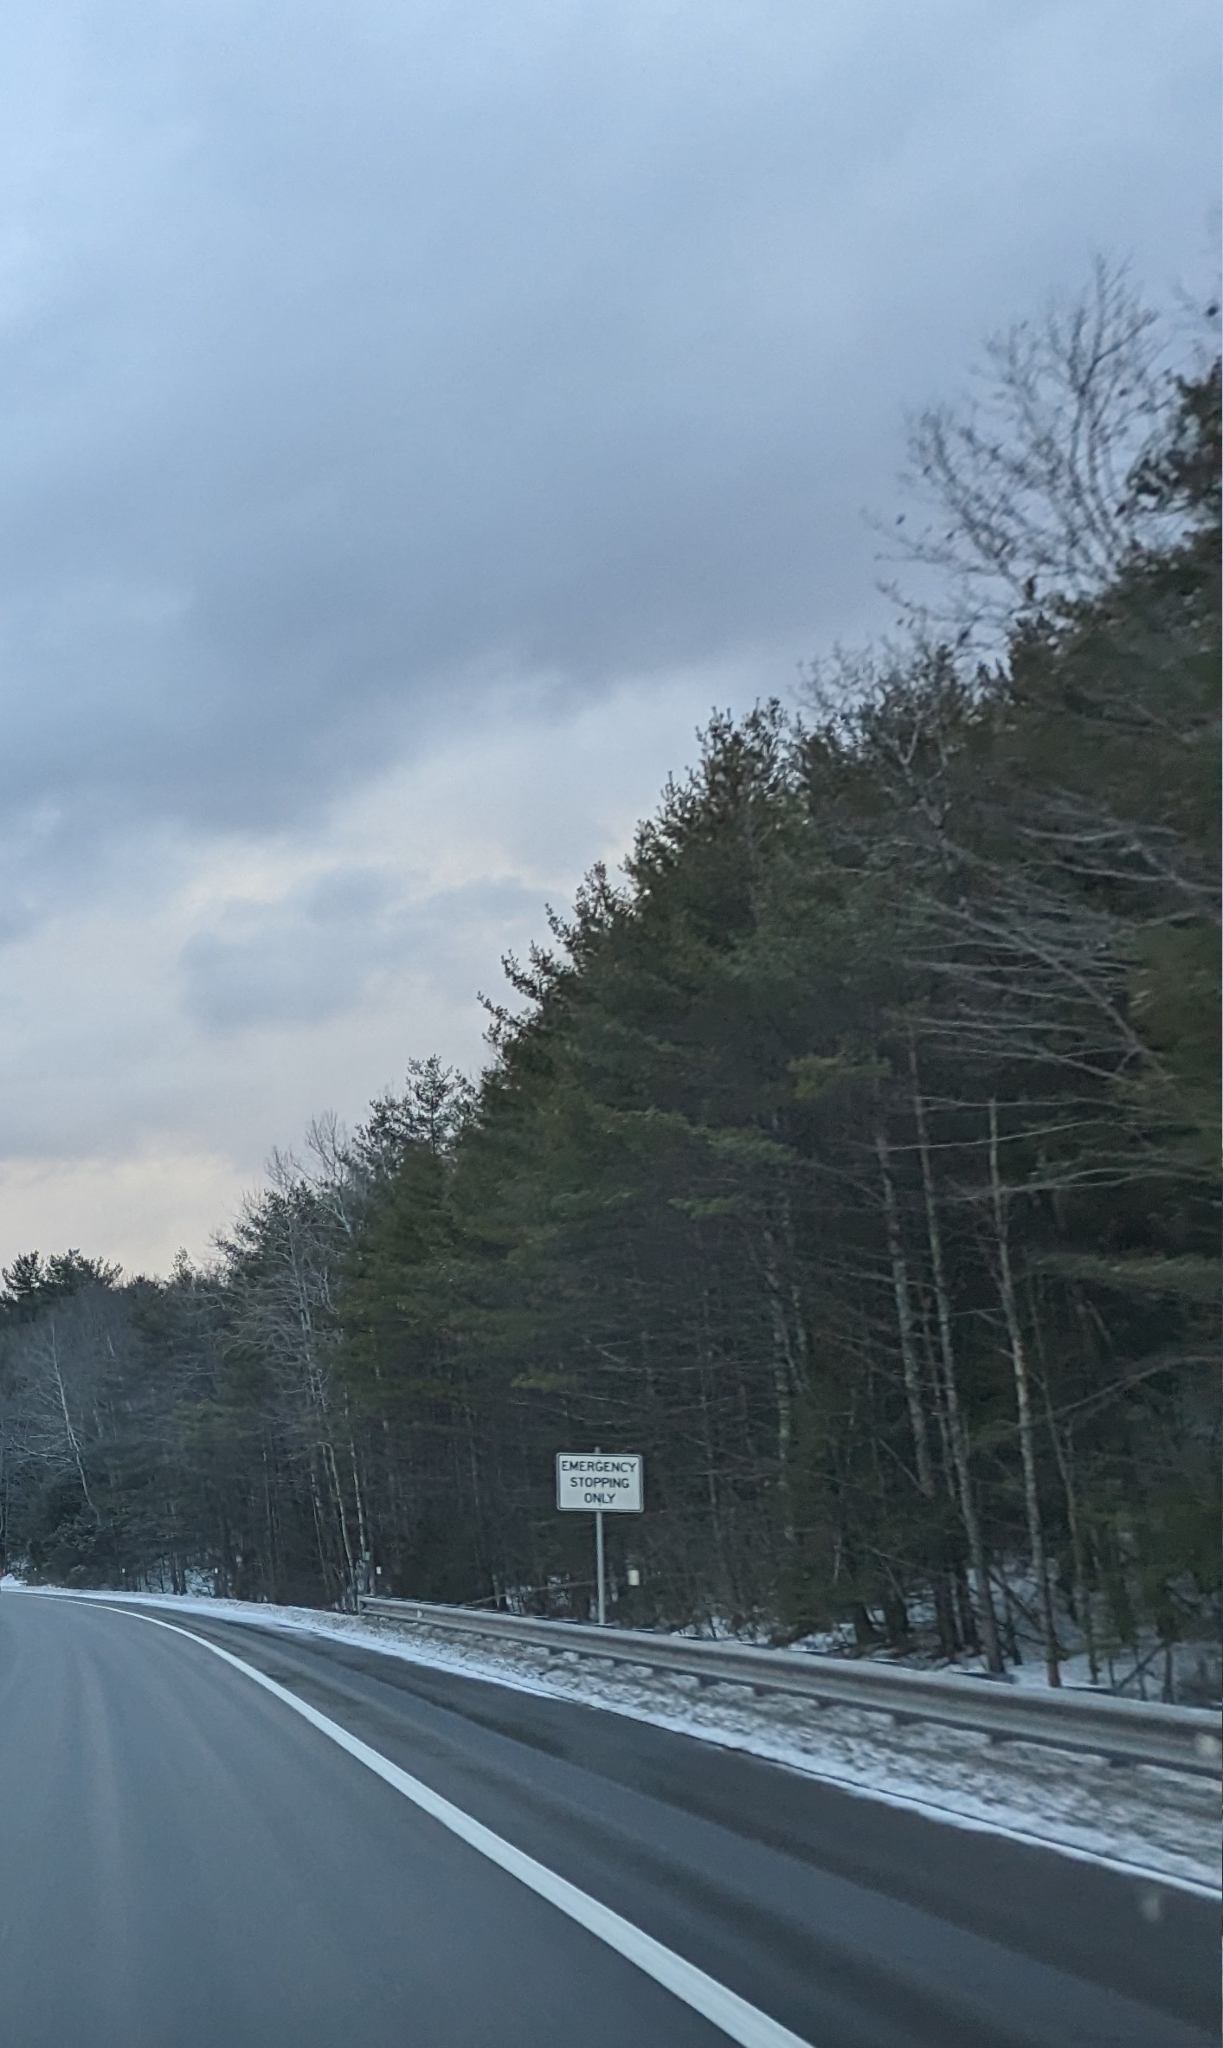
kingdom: Plantae
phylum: Tracheophyta
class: Pinopsida
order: Pinales
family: Pinaceae
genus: Pinus
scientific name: Pinus strobus
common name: Weymouth pine
